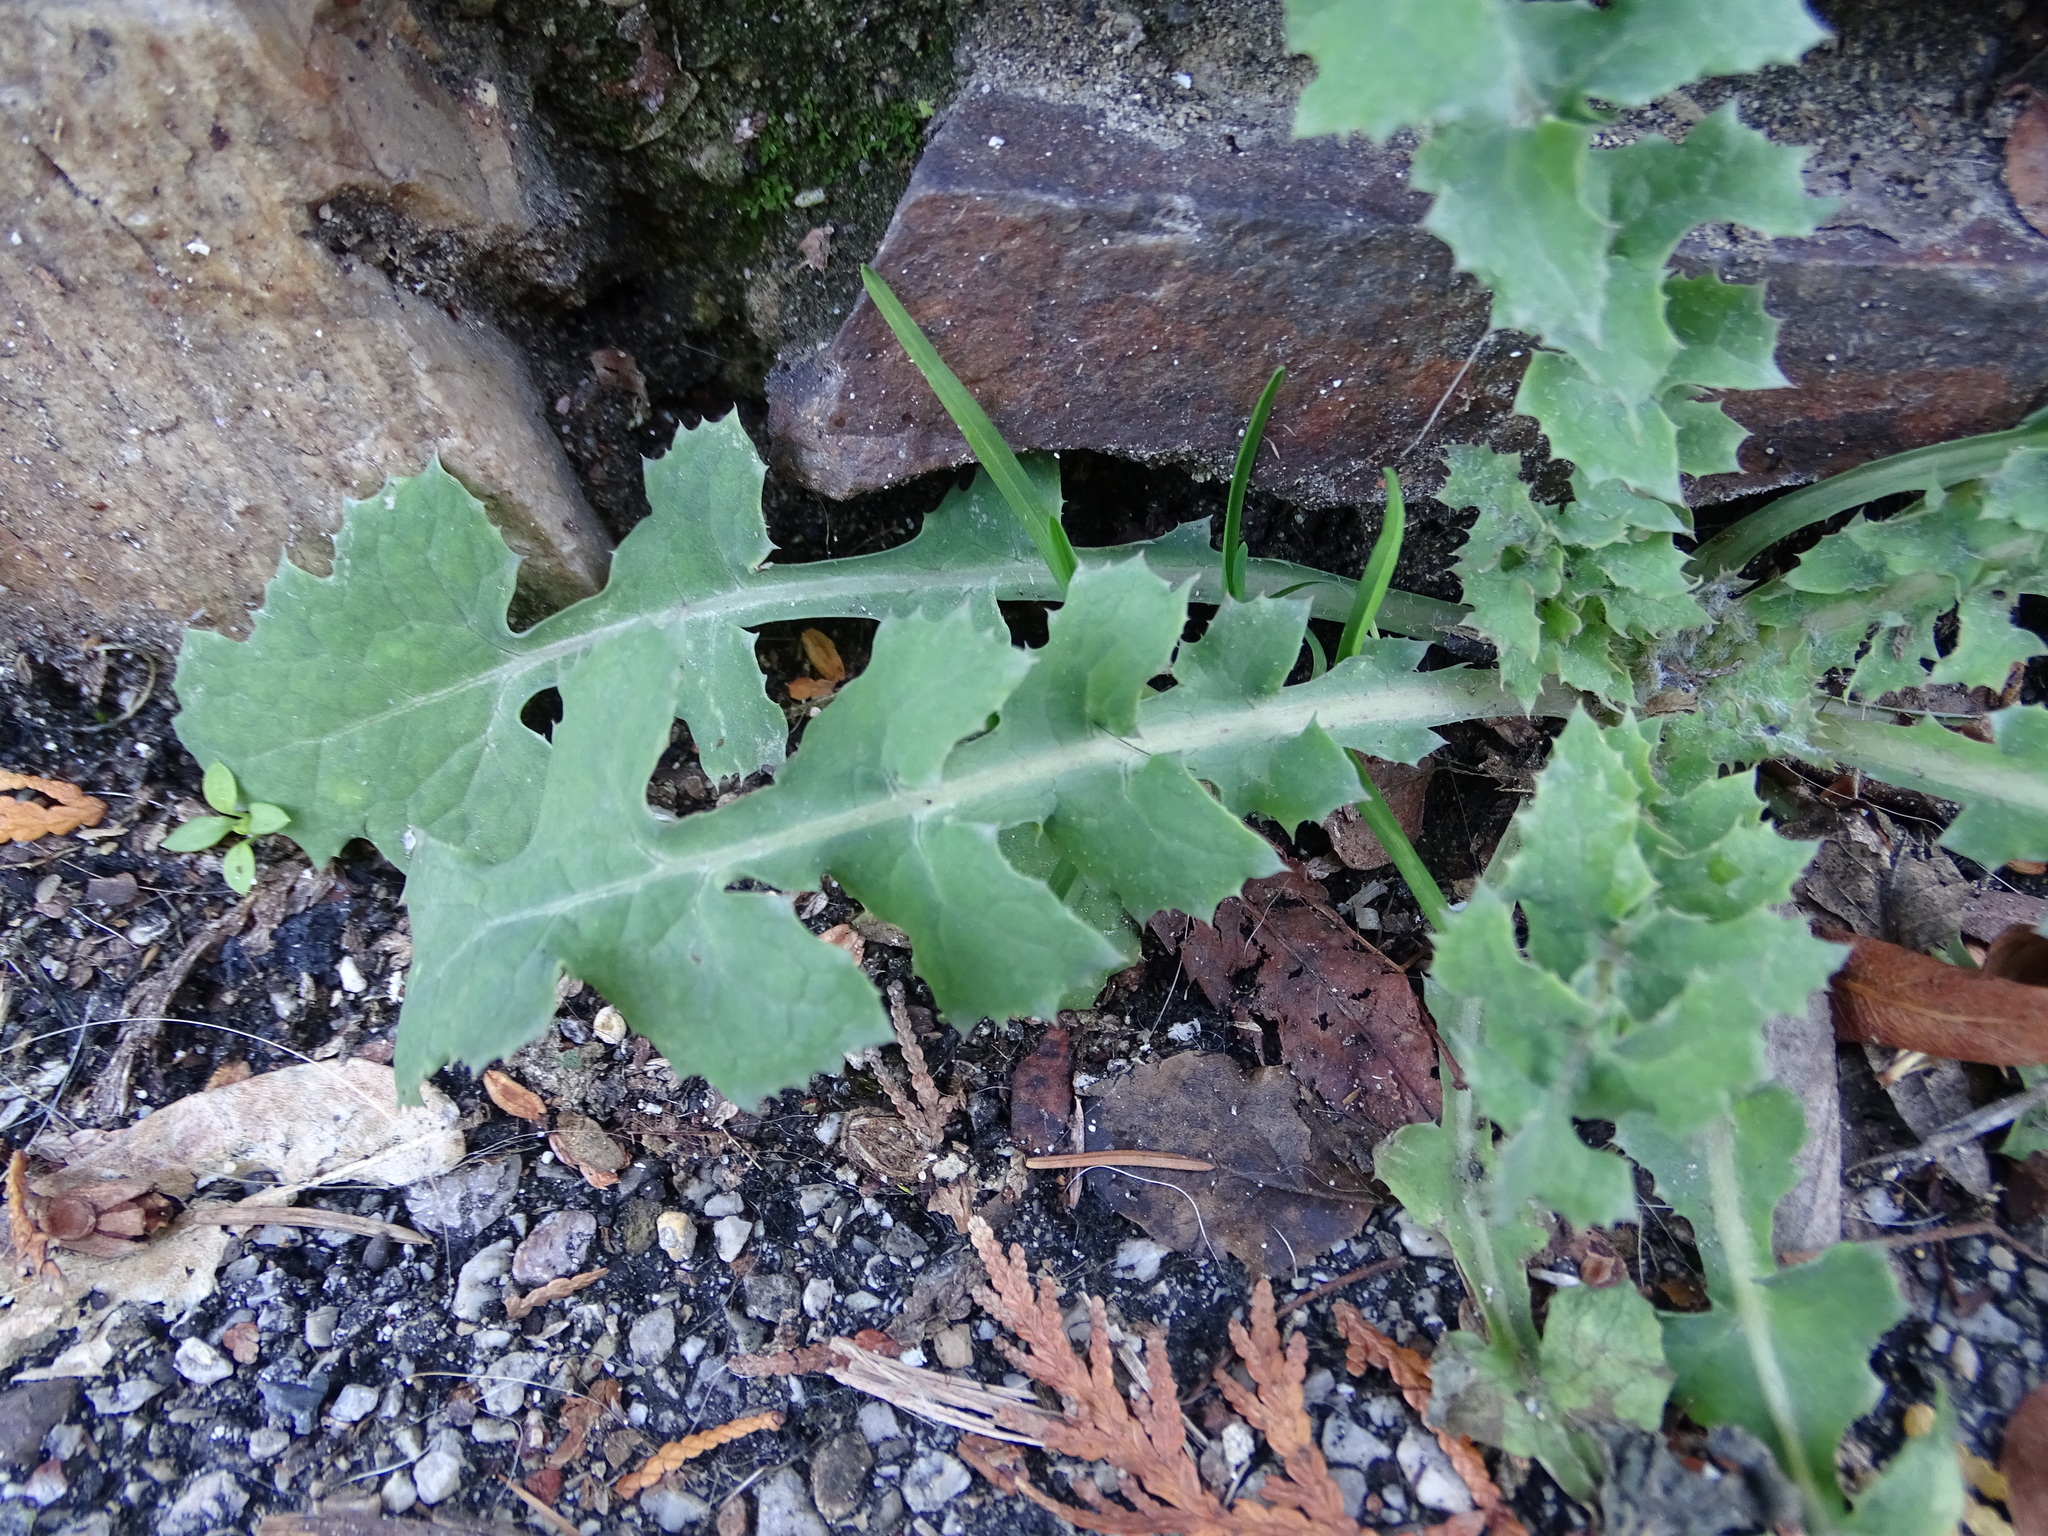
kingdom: Plantae
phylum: Tracheophyta
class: Magnoliopsida
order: Asterales
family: Asteraceae
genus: Sonchus
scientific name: Sonchus oleraceus
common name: Common sowthistle
